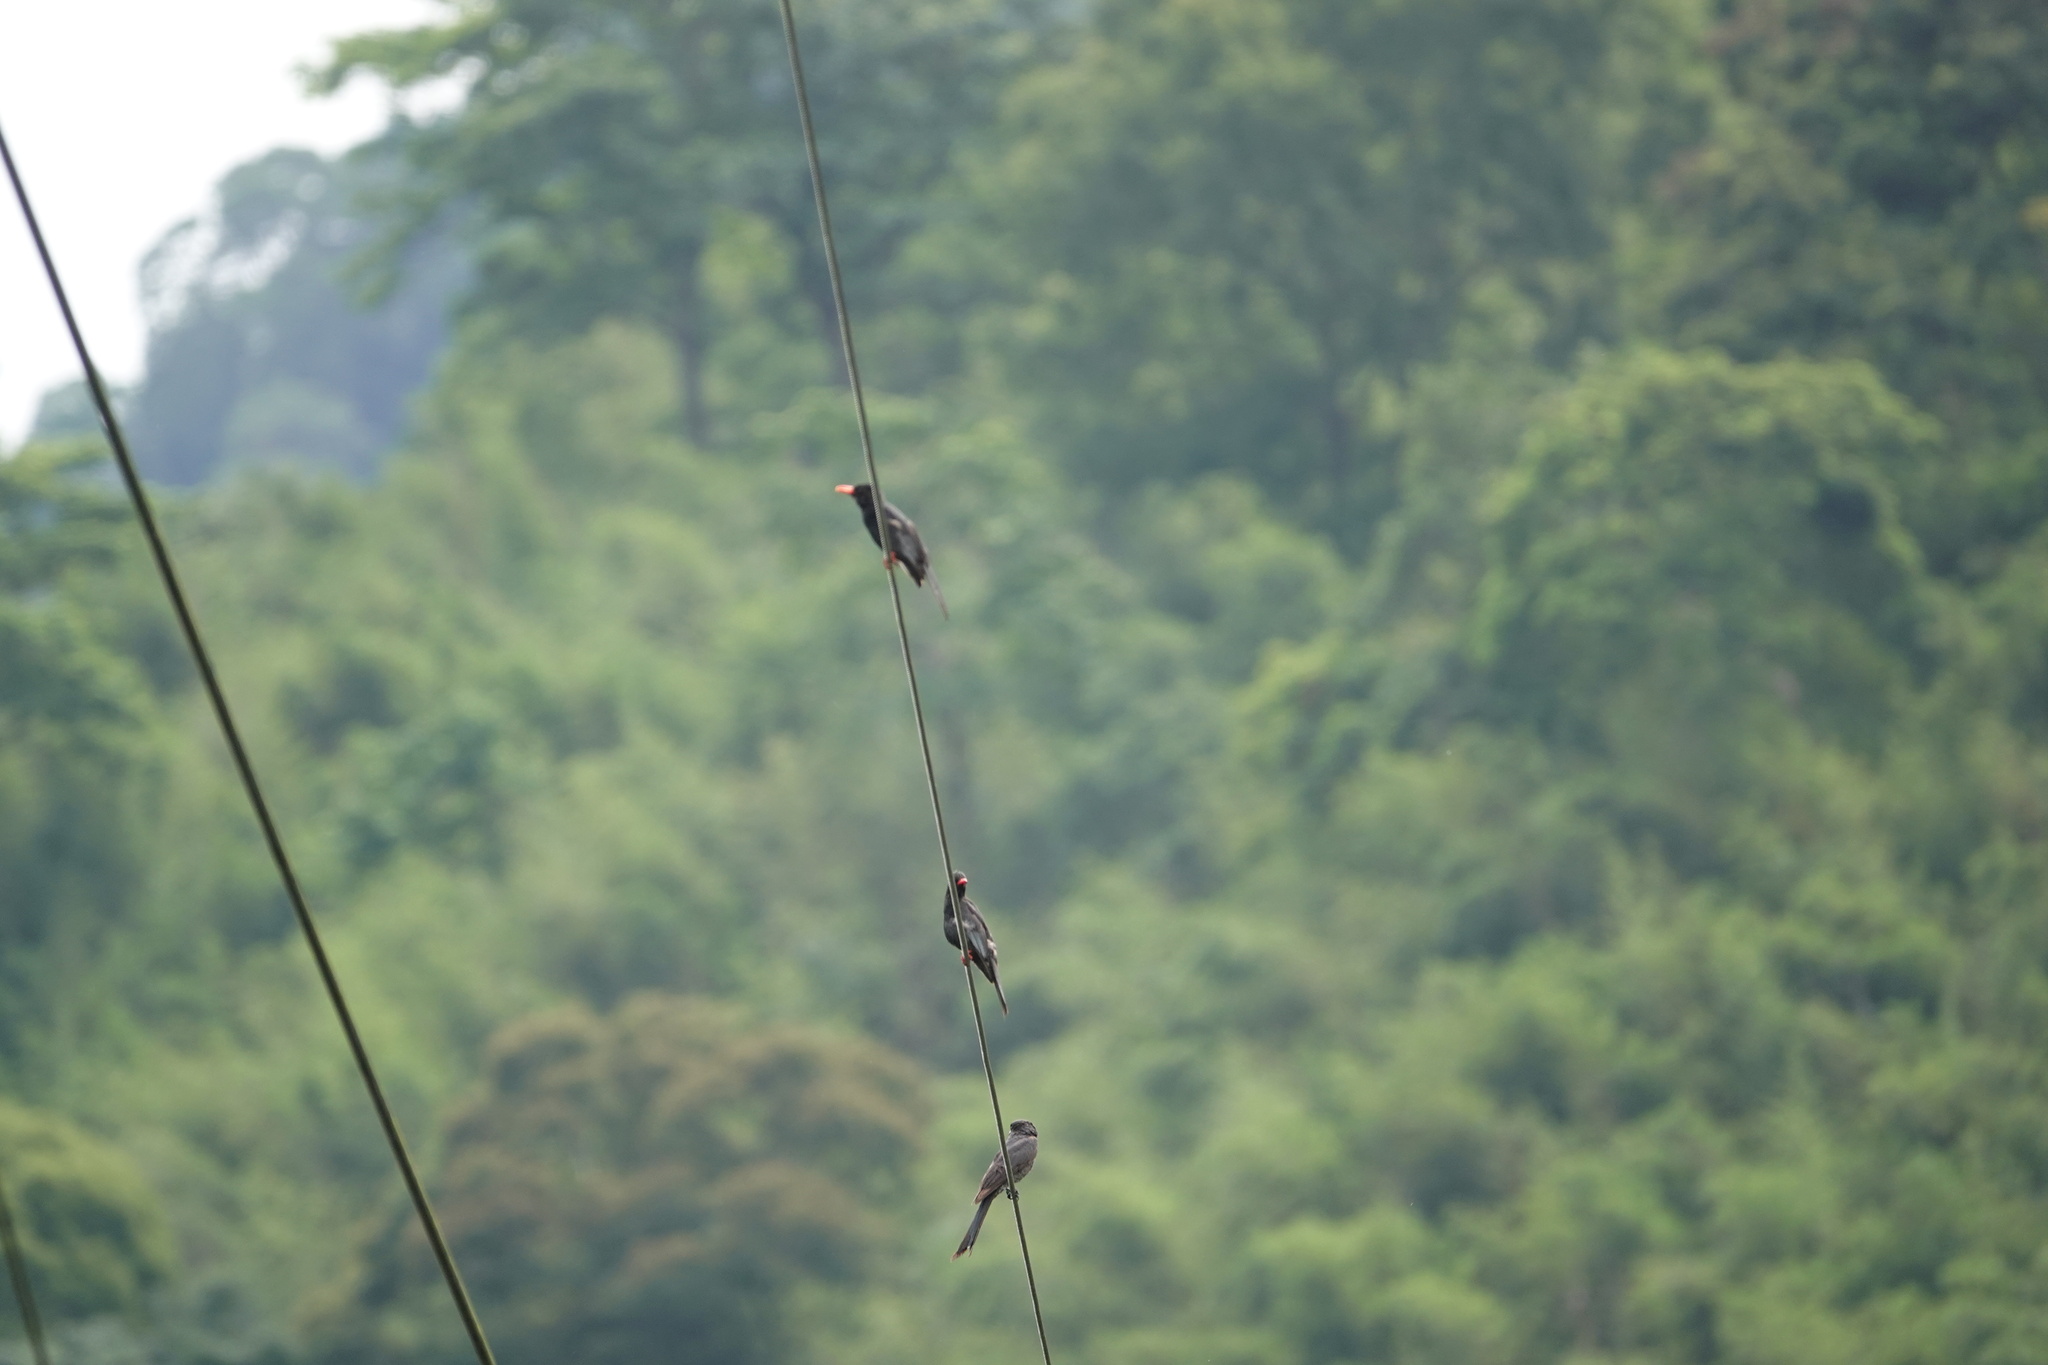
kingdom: Animalia
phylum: Chordata
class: Aves
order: Passeriformes
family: Pycnonotidae
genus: Hypsipetes
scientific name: Hypsipetes leucocephalus
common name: Black bulbul
